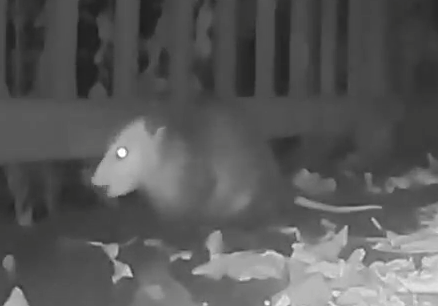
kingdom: Animalia
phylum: Chordata
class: Mammalia
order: Didelphimorphia
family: Didelphidae
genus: Didelphis
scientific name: Didelphis virginiana
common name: Virginia opossum
